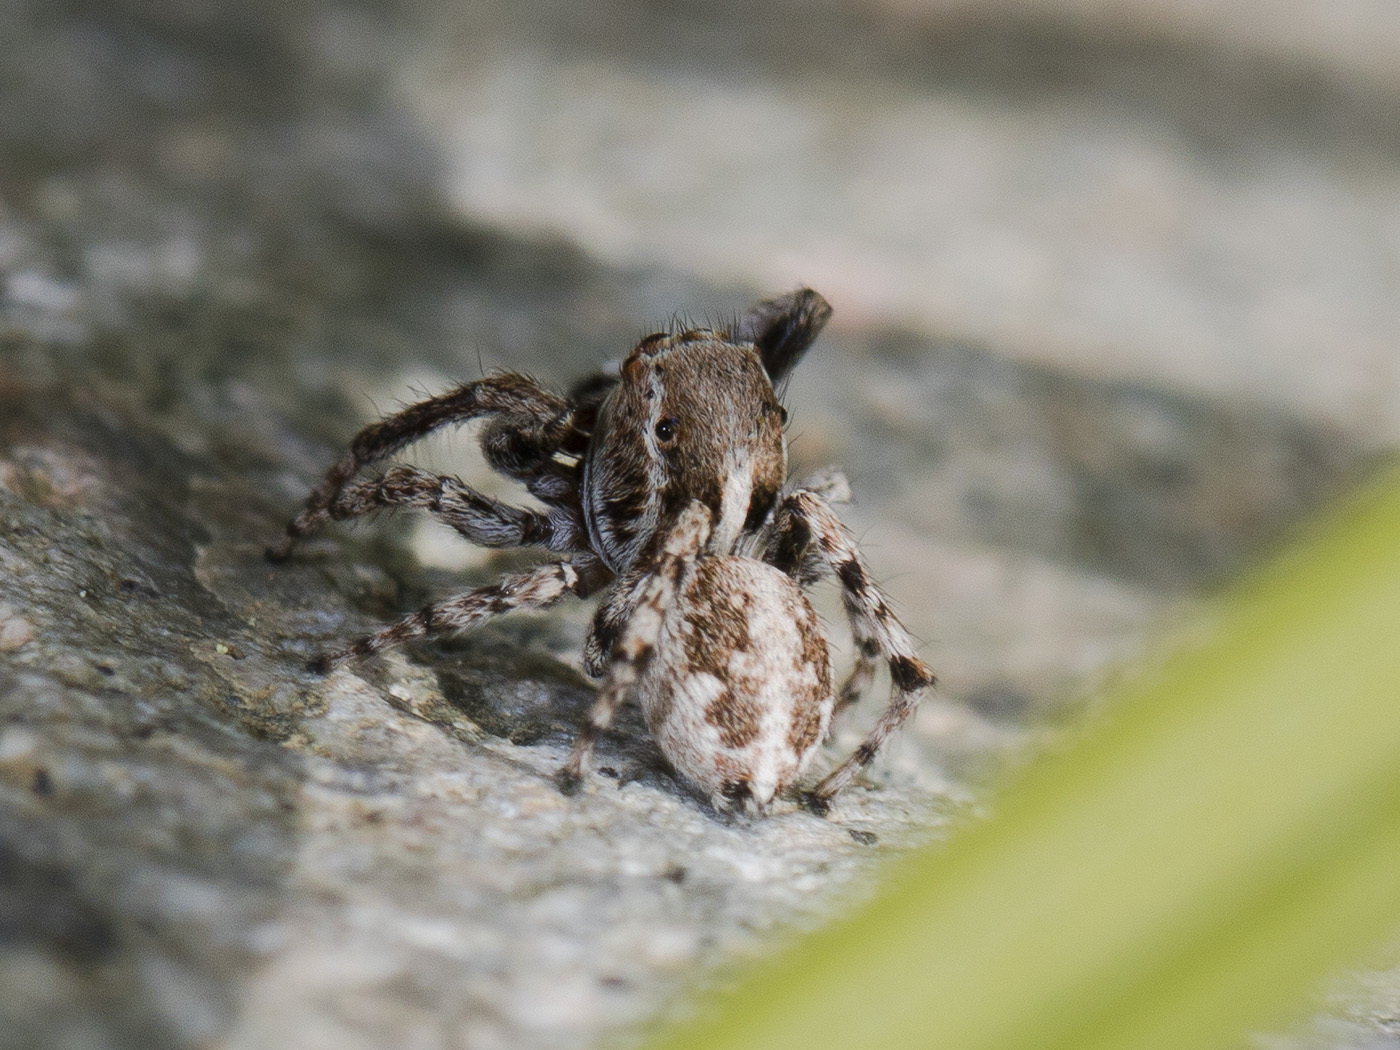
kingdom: Animalia
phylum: Arthropoda
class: Arachnida
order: Araneae
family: Salticidae
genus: Attulus
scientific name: Attulus avocator
